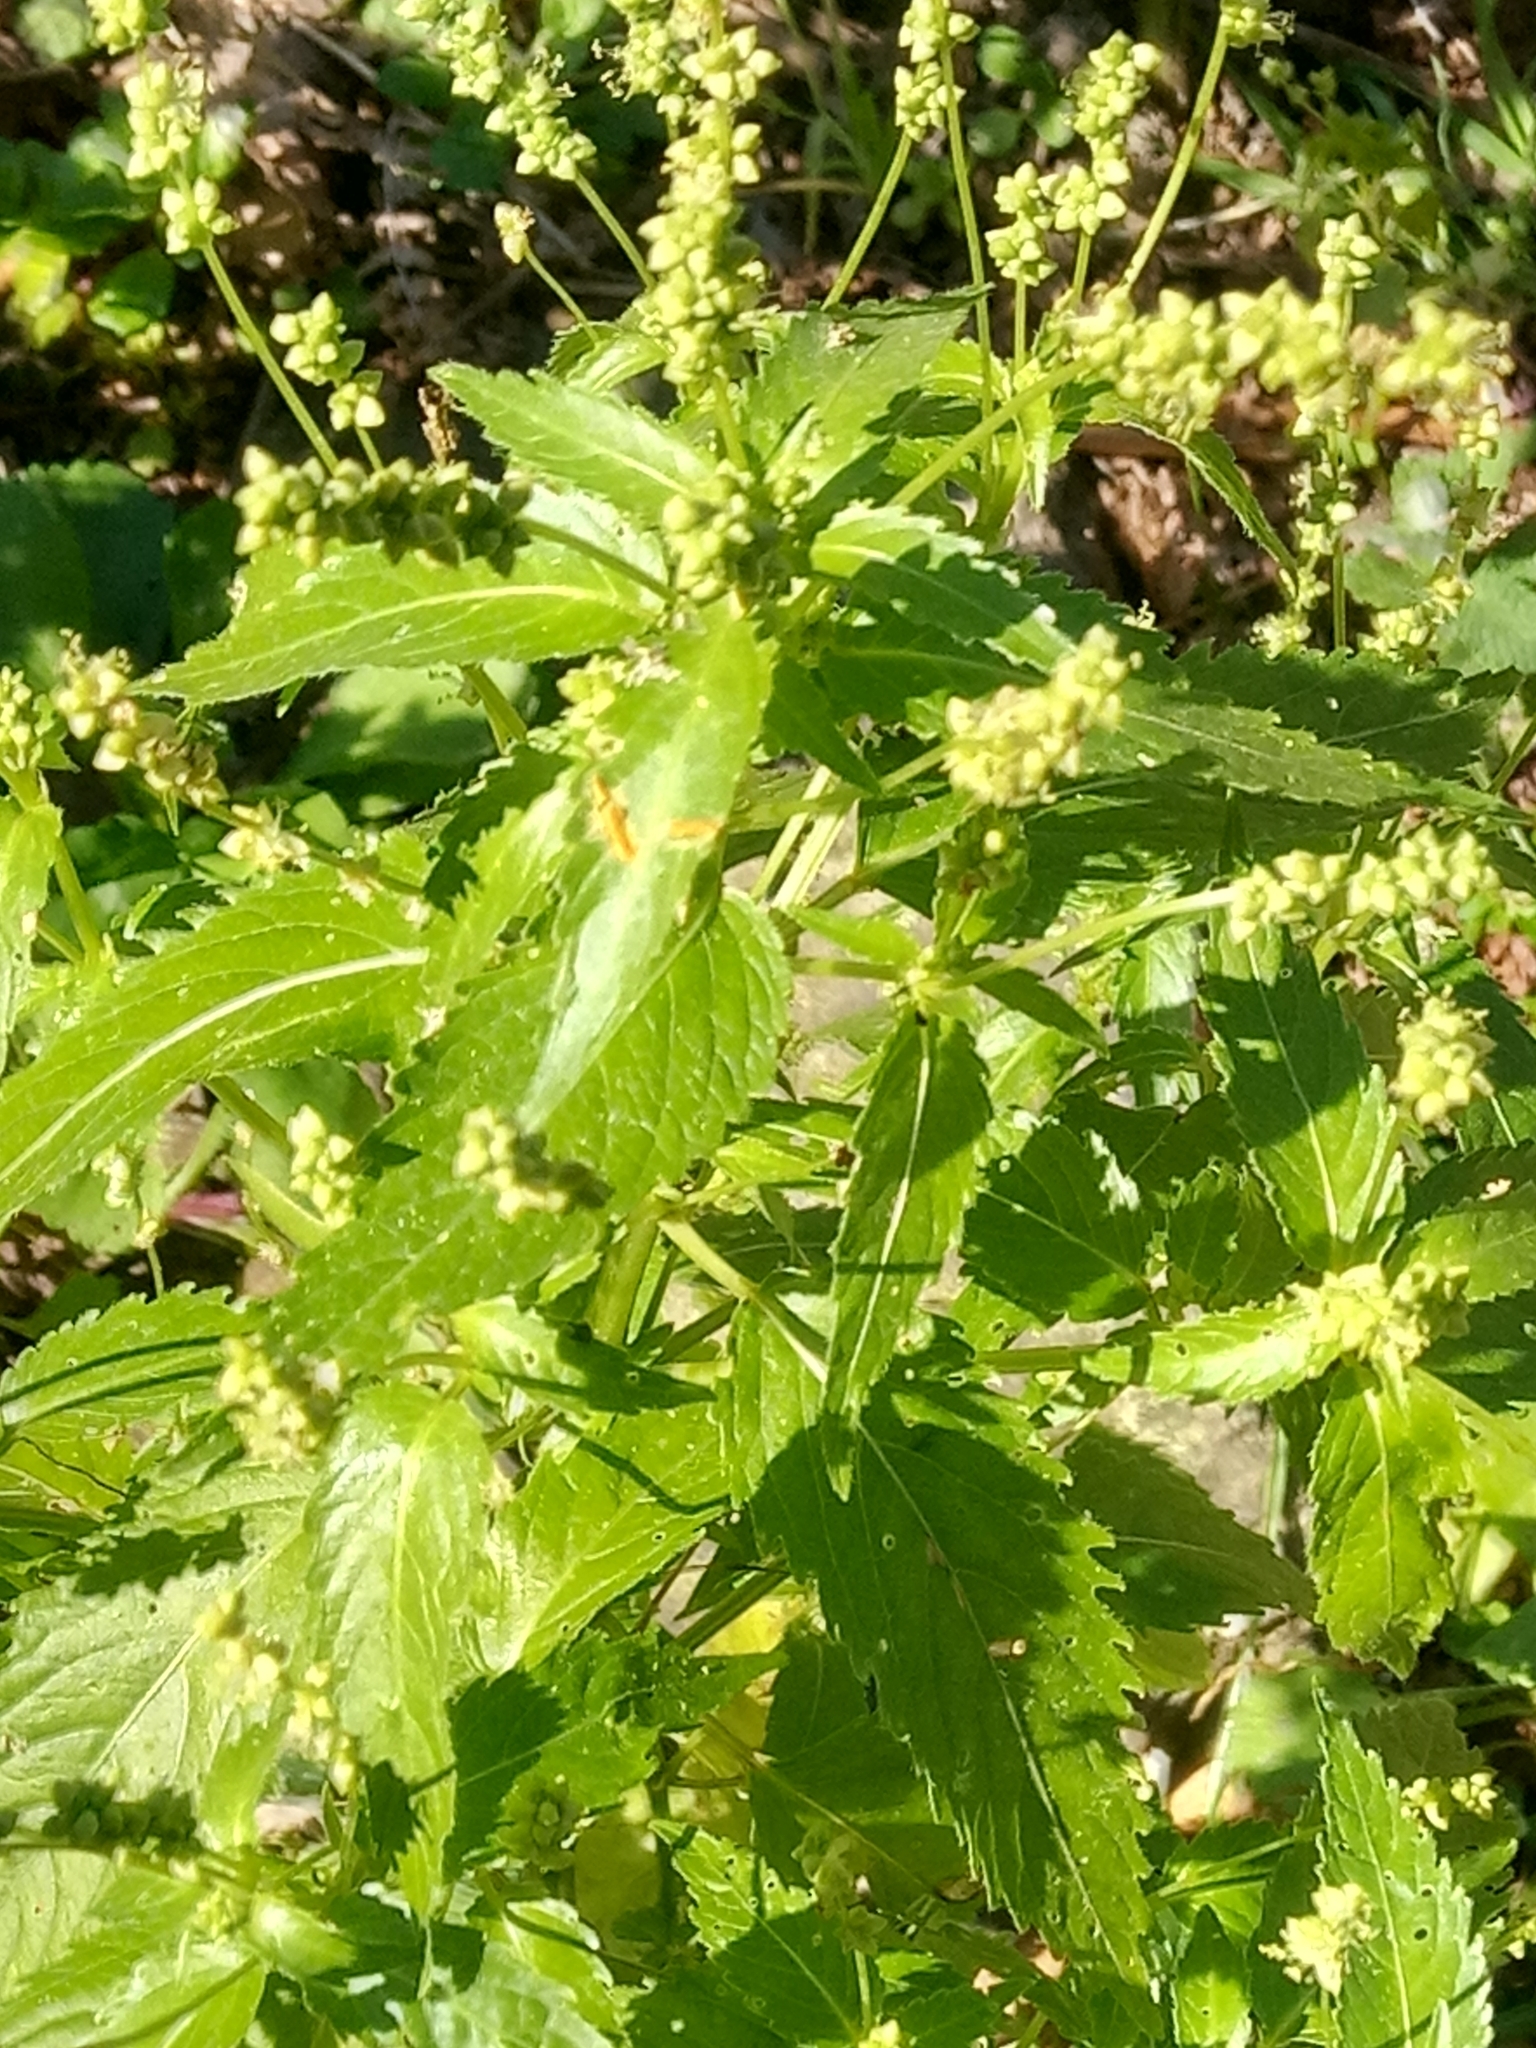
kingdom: Plantae
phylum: Tracheophyta
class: Magnoliopsida
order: Malpighiales
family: Euphorbiaceae
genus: Mercurialis
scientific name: Mercurialis annua
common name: Annual mercury
